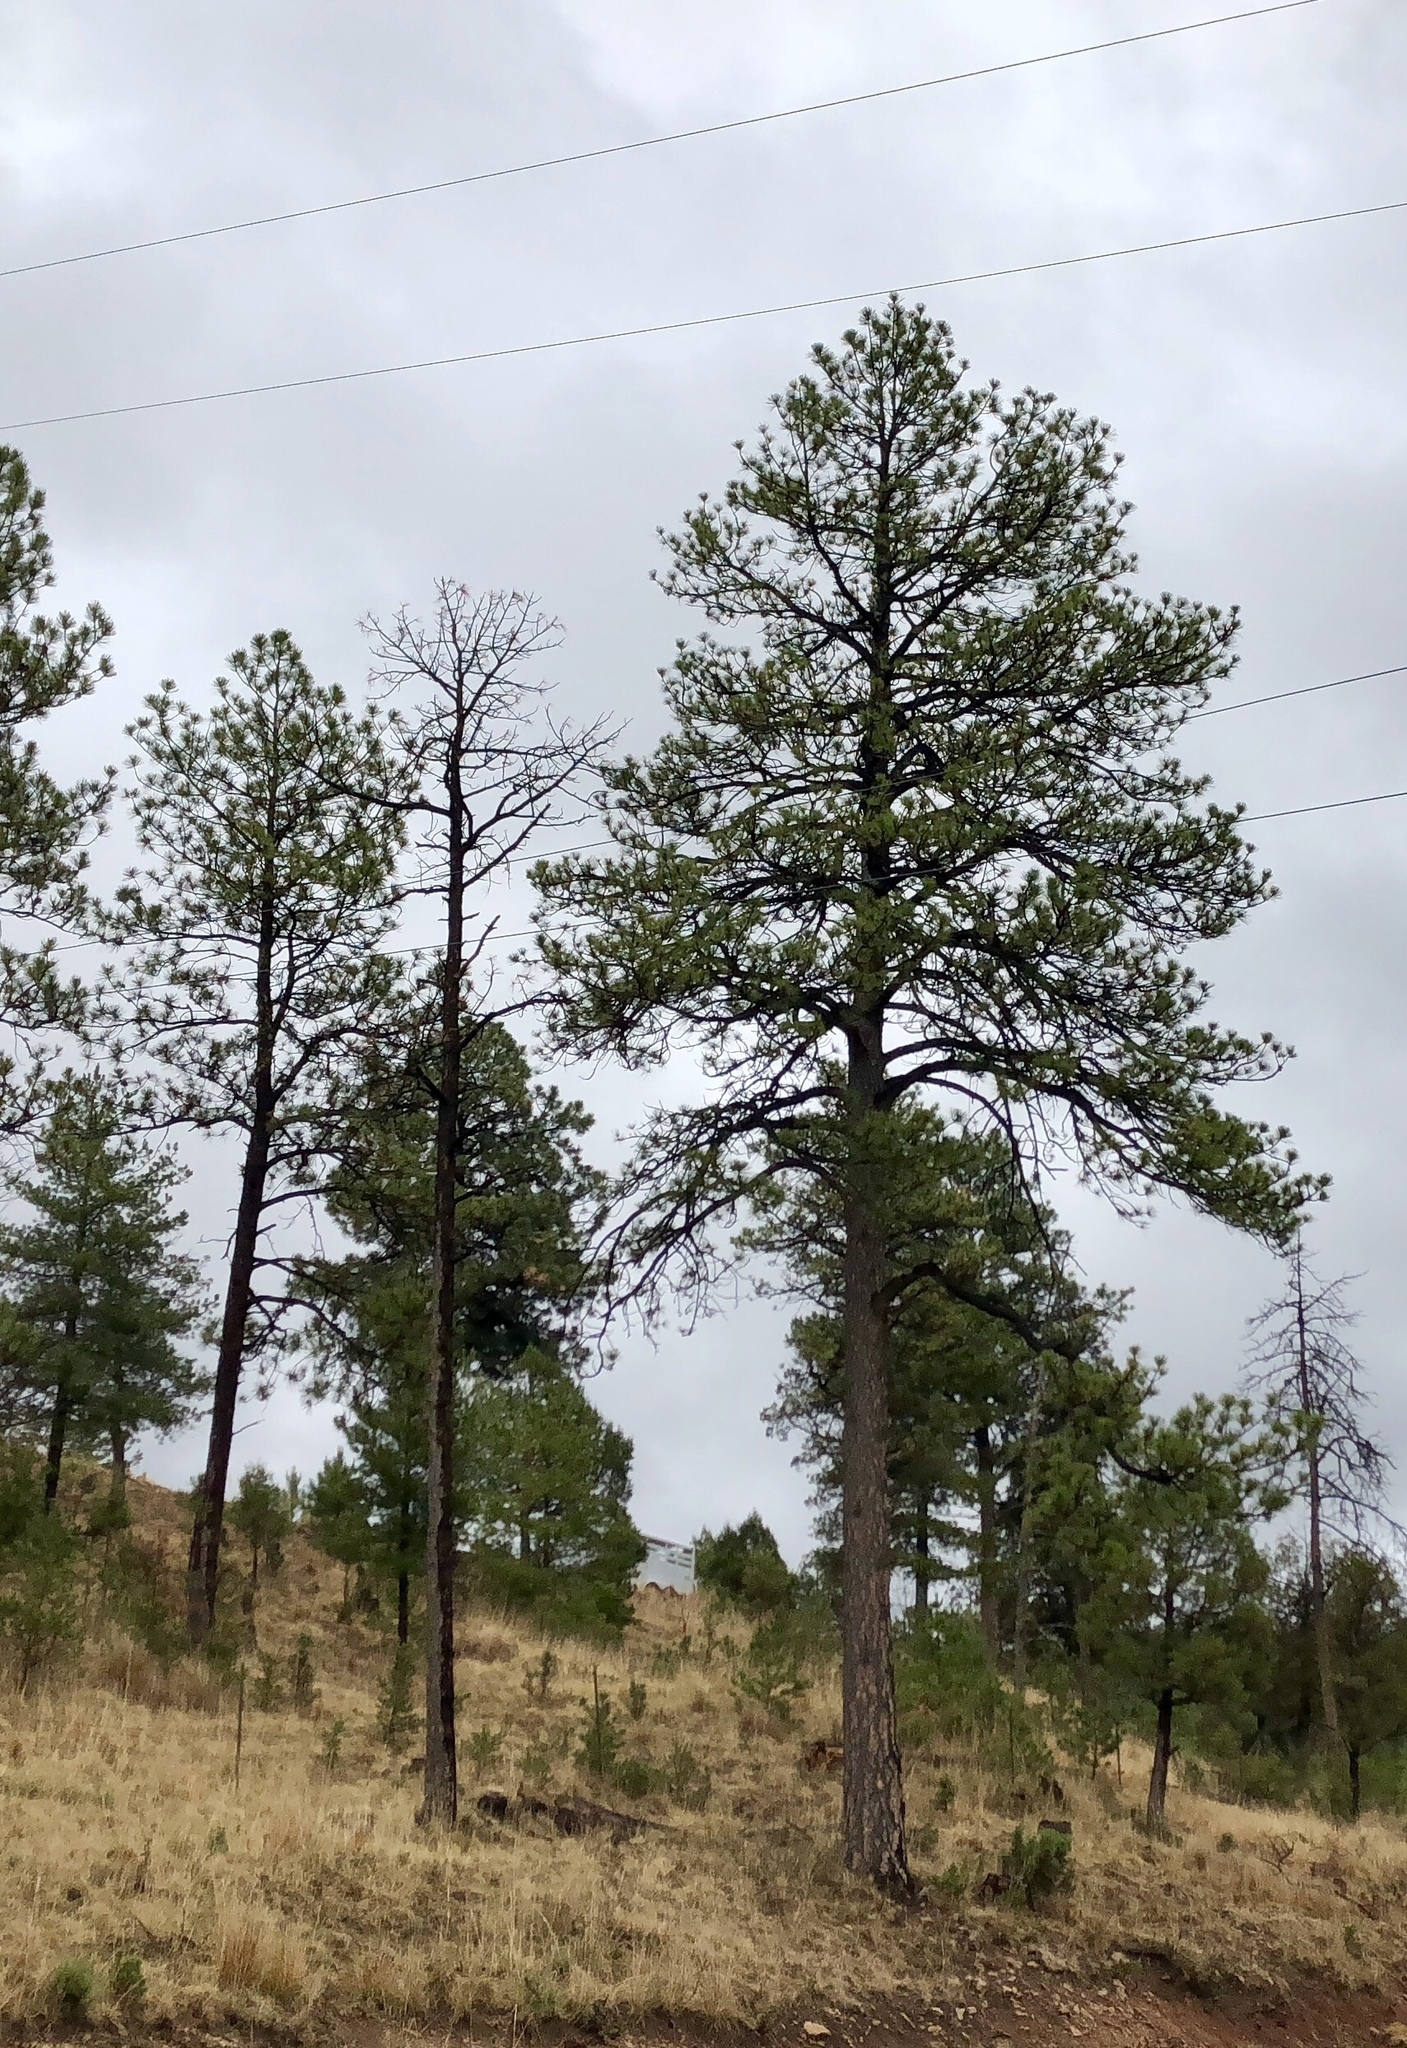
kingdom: Plantae
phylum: Tracheophyta
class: Pinopsida
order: Pinales
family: Pinaceae
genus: Pinus
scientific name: Pinus ponderosa
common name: Western yellow-pine
